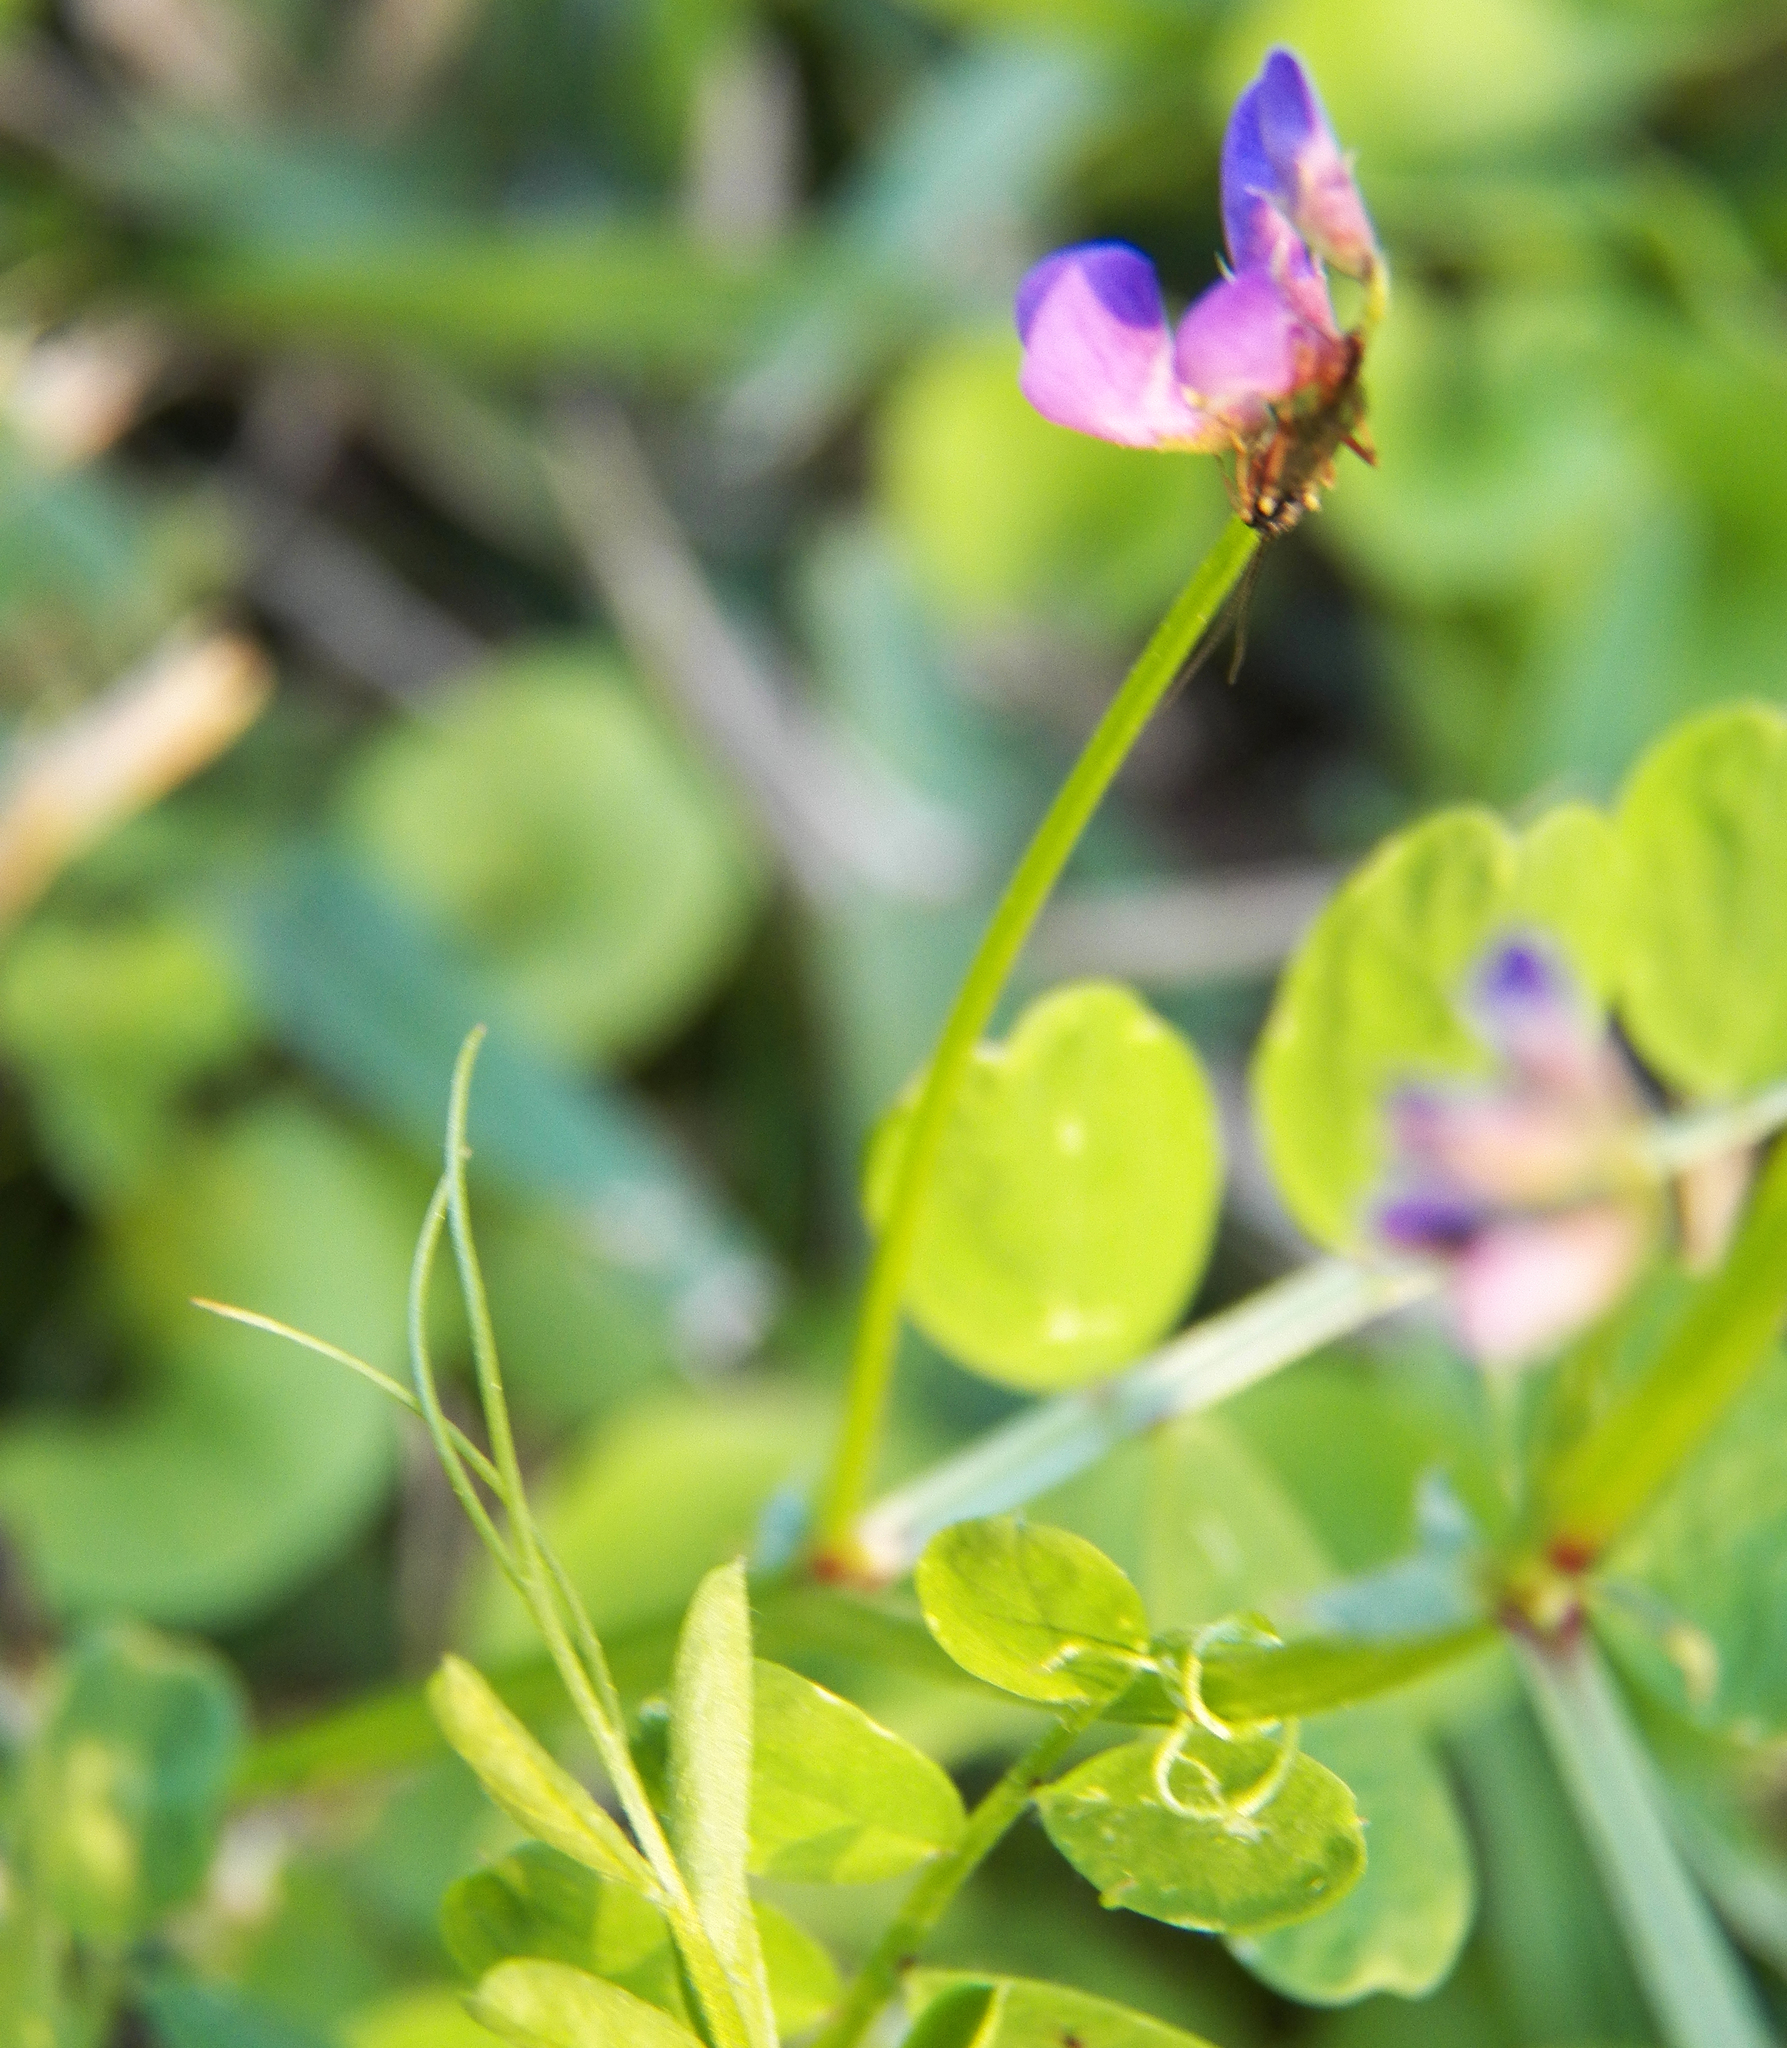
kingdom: Plantae
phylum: Tracheophyta
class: Magnoliopsida
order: Fabales
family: Fabaceae
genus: Vicia
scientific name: Vicia ludoviciana
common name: Louisiana vetch
